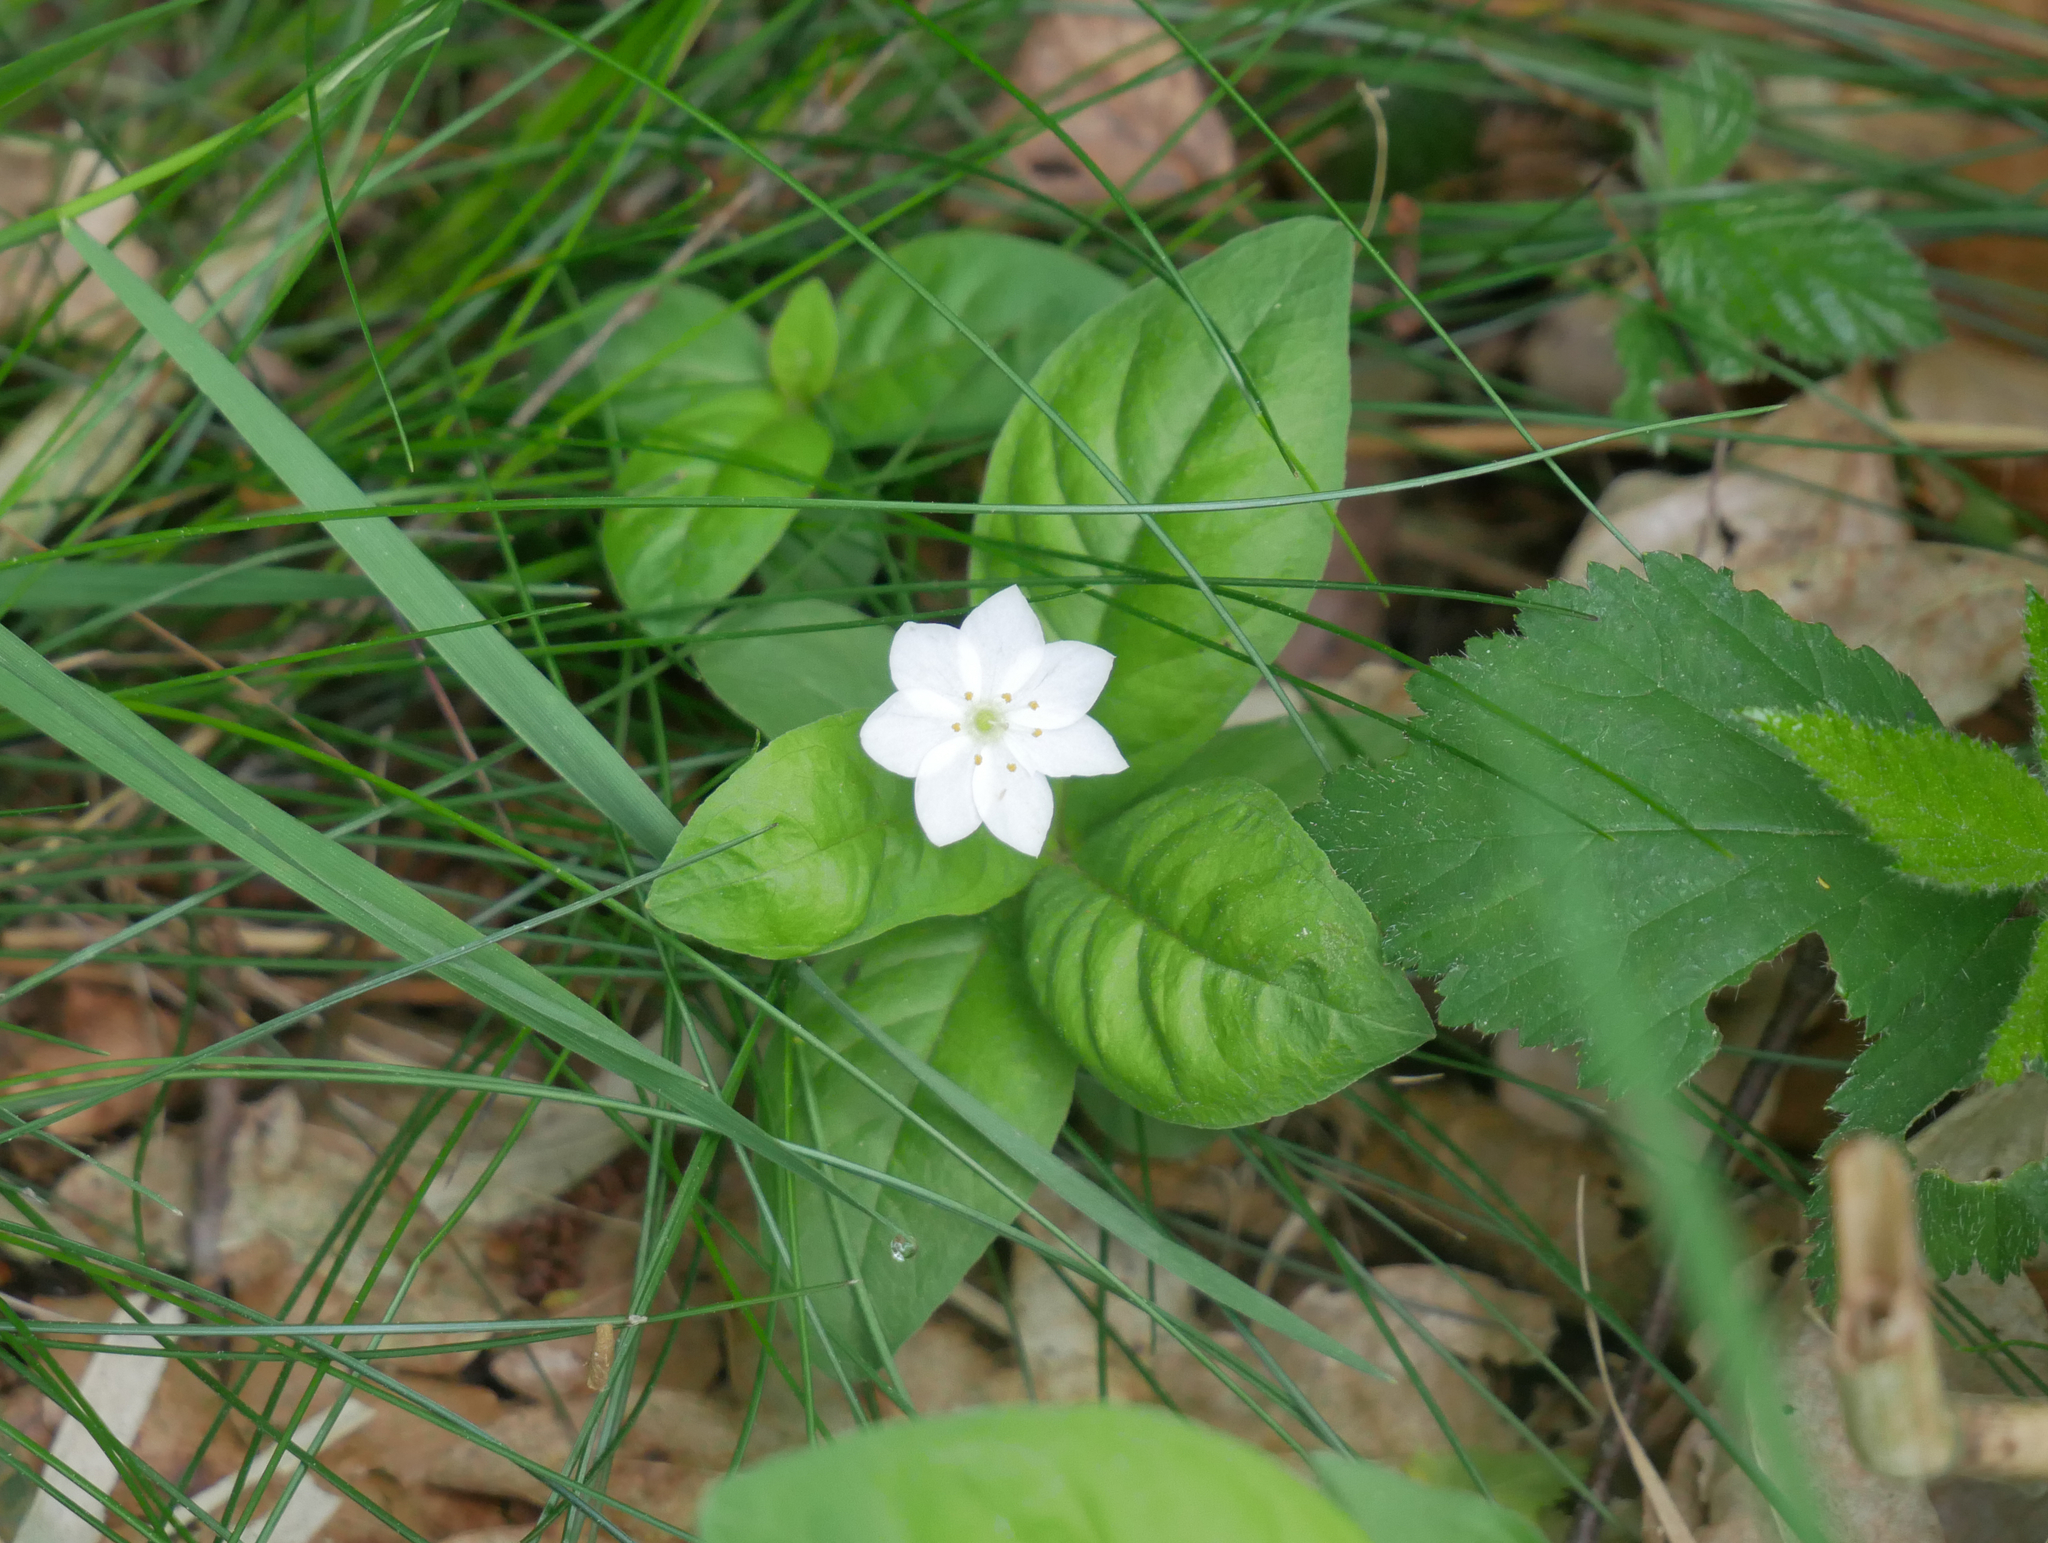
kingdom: Plantae
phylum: Tracheophyta
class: Magnoliopsida
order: Ericales
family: Primulaceae
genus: Lysimachia
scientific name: Lysimachia europaea
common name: Arctic starflower
